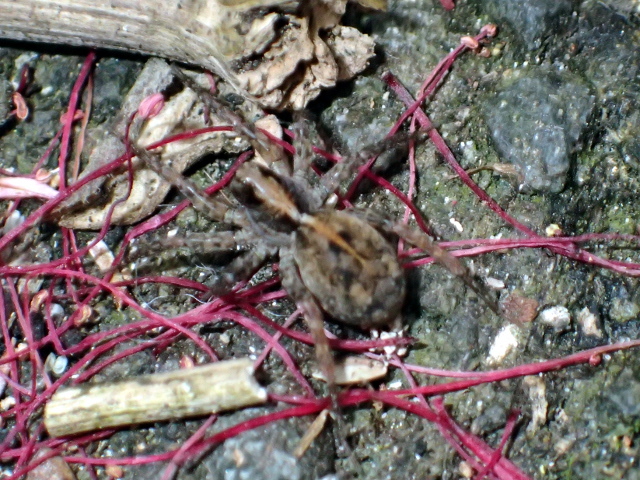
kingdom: Animalia
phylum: Arthropoda
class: Arachnida
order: Araneae
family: Lycosidae
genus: Anoteropsis
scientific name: Anoteropsis hilaris
